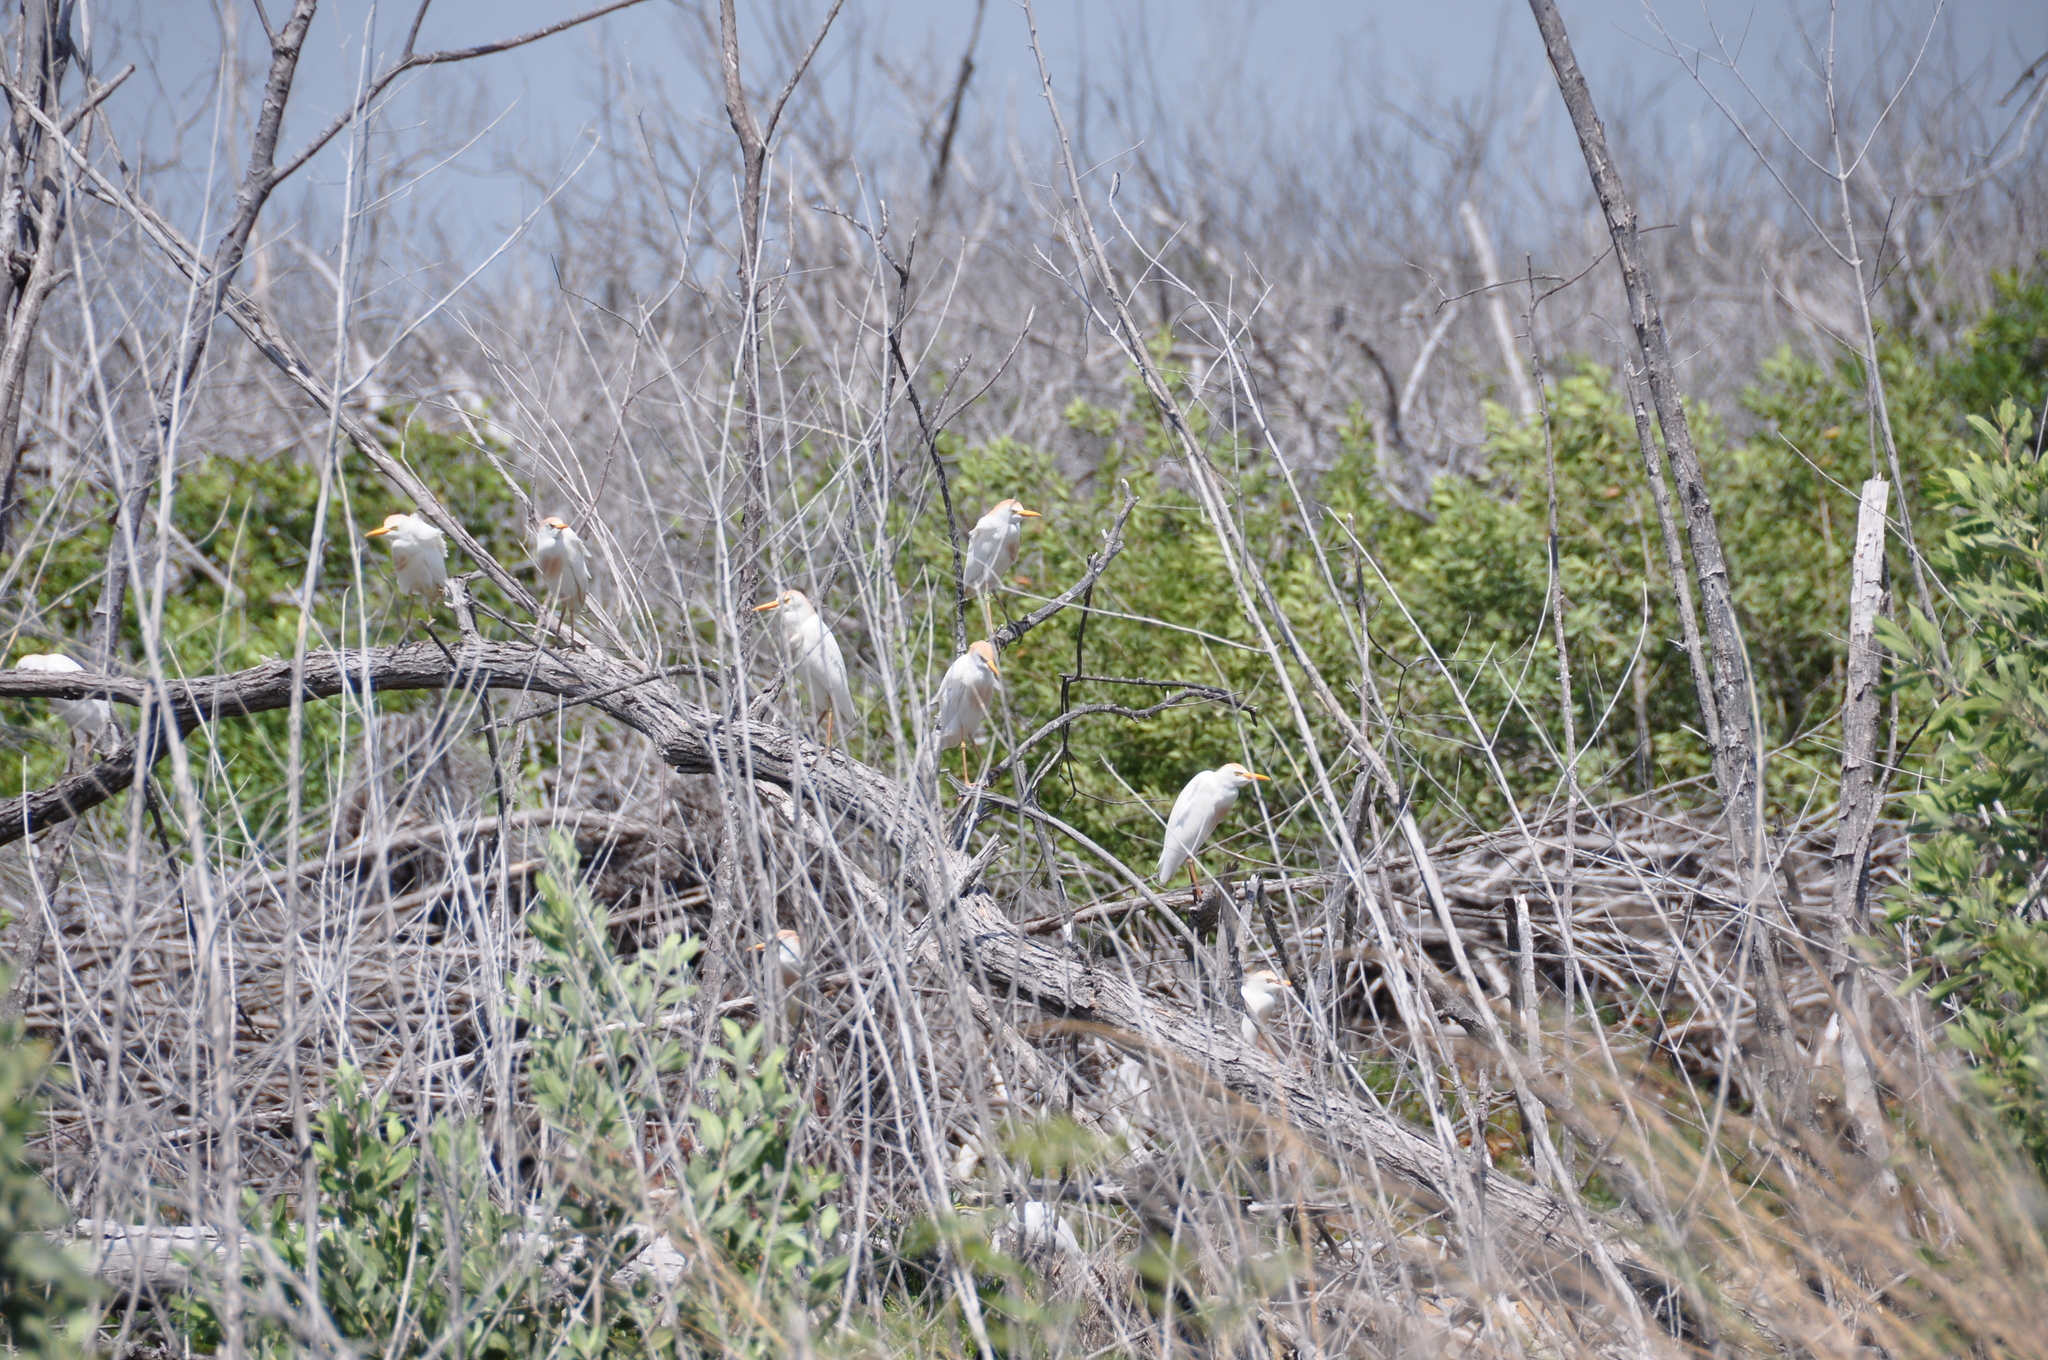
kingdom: Animalia
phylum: Chordata
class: Aves
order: Pelecaniformes
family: Ardeidae
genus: Bubulcus
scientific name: Bubulcus ibis
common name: Cattle egret
